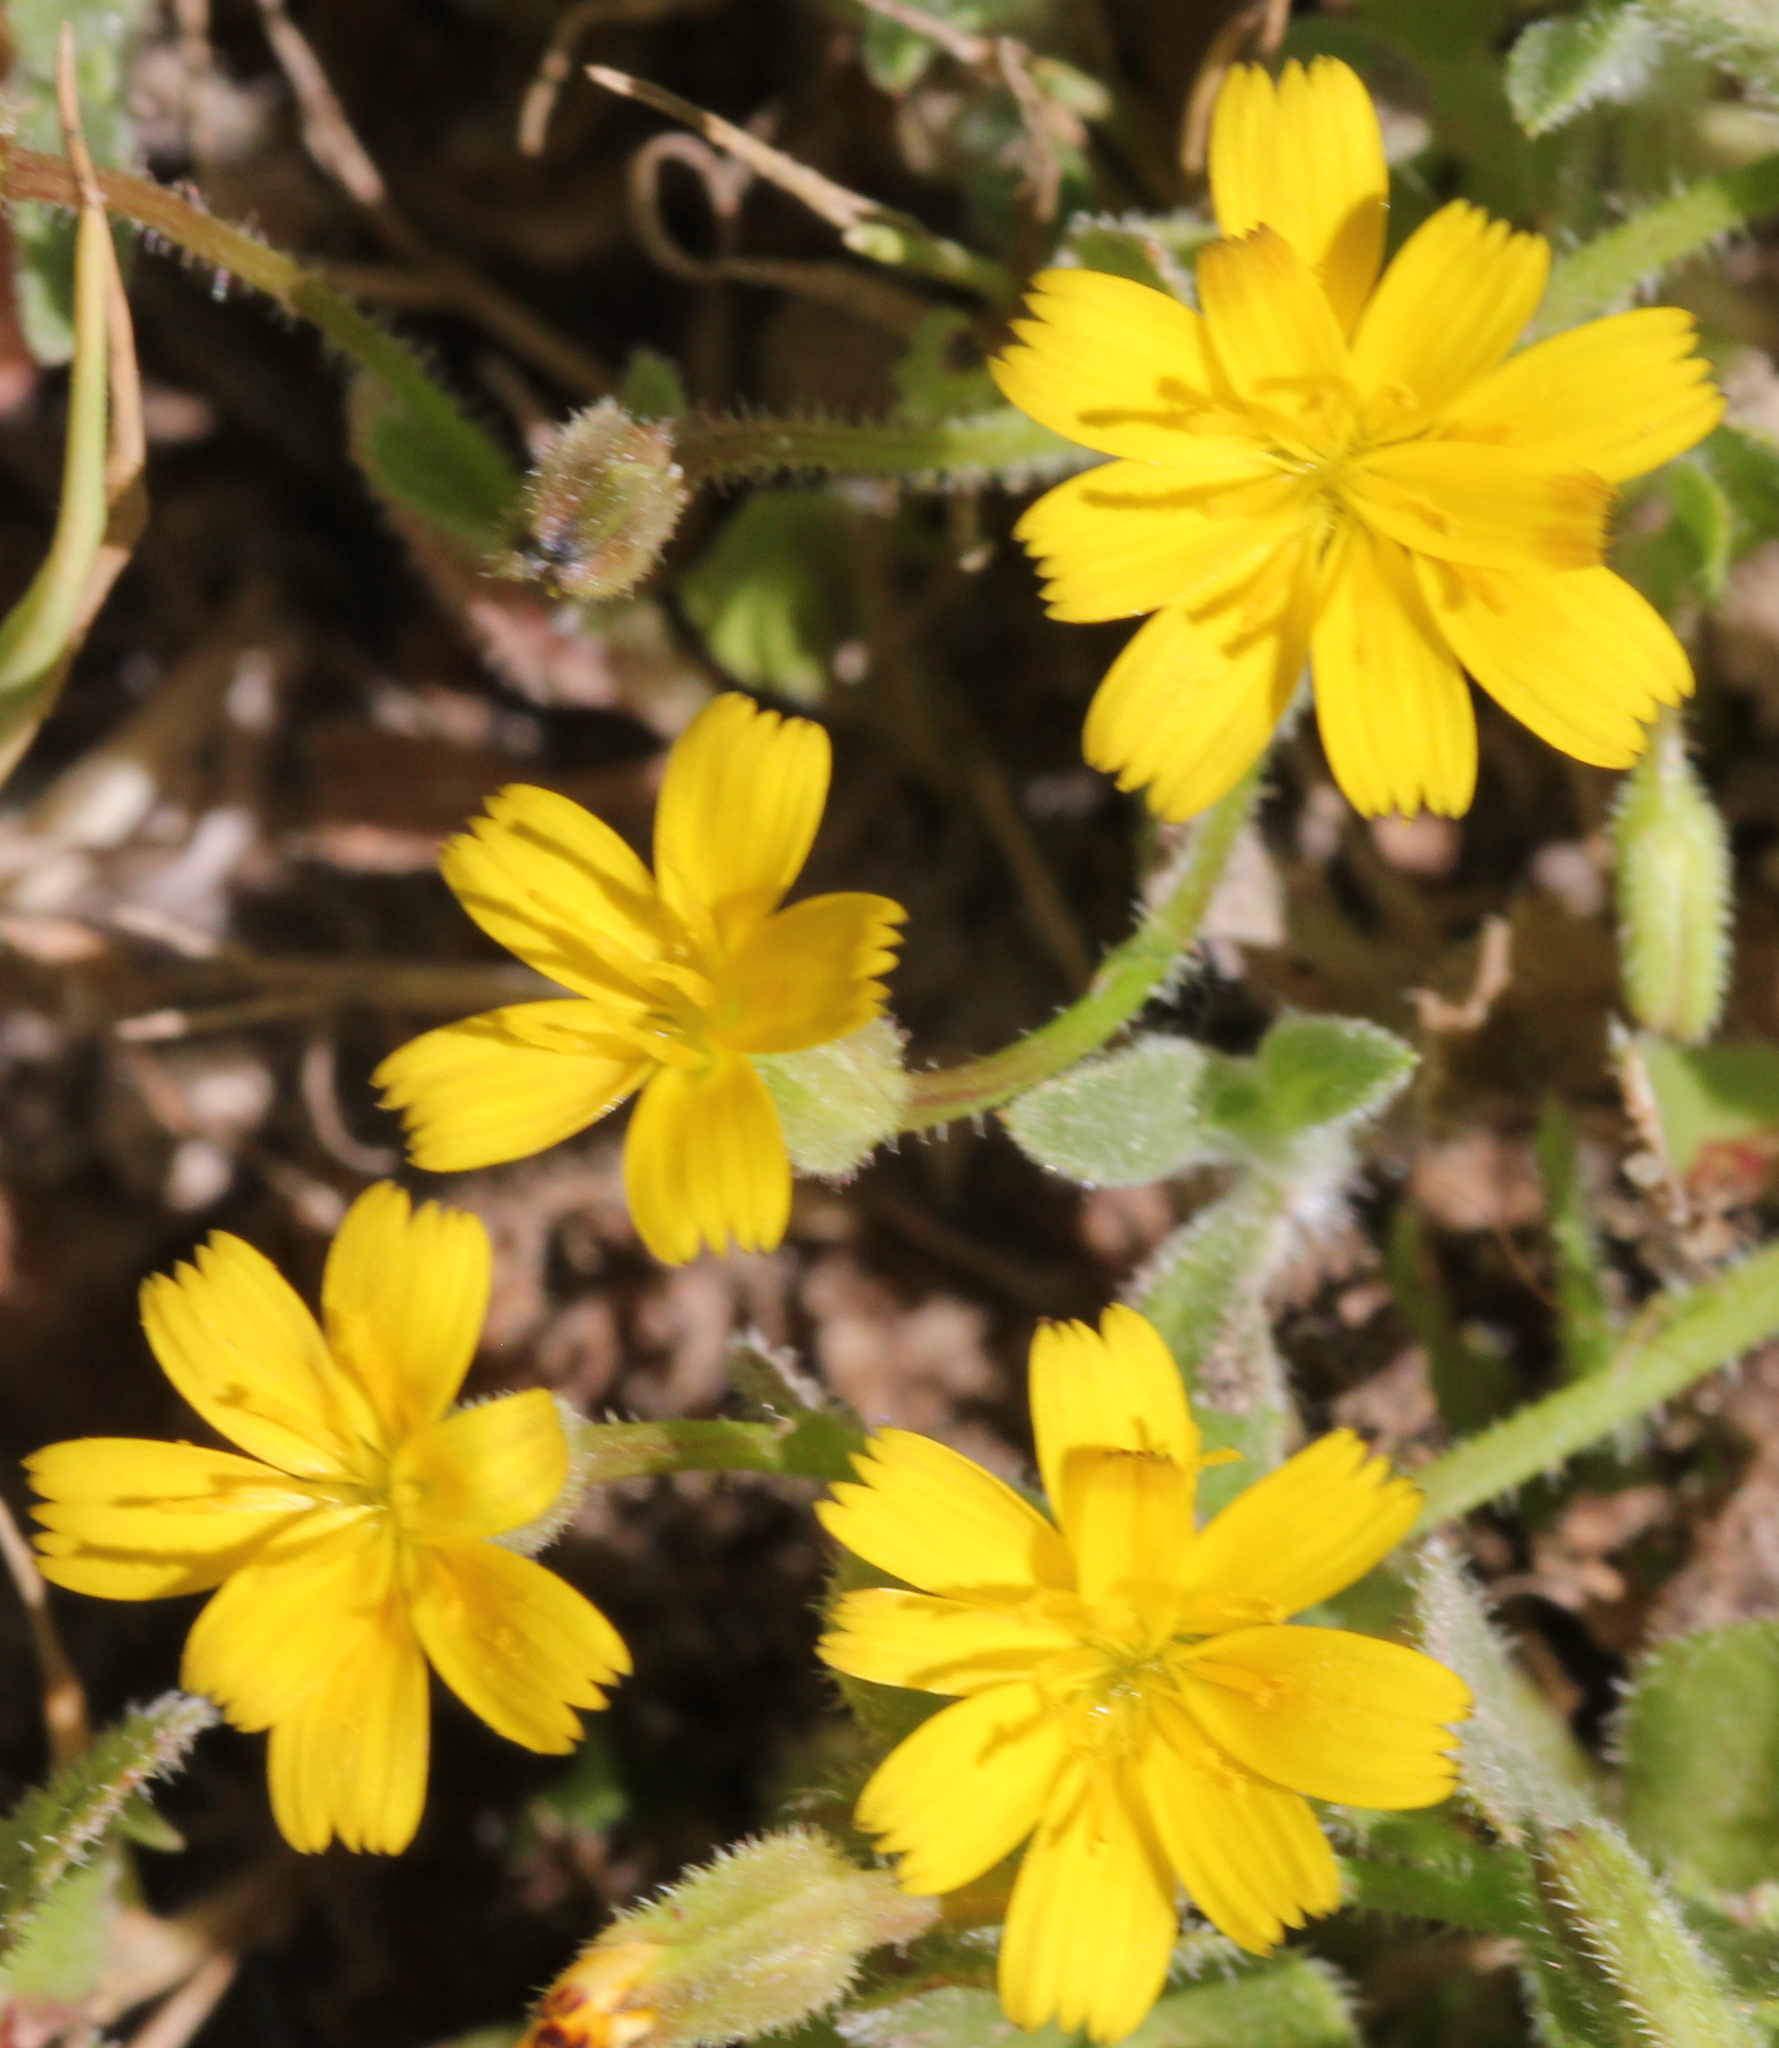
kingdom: Plantae
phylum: Tracheophyta
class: Magnoliopsida
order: Asterales
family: Asteraceae
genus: Hedypnois
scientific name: Hedypnois rhagadioloides
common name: Cretan weed
